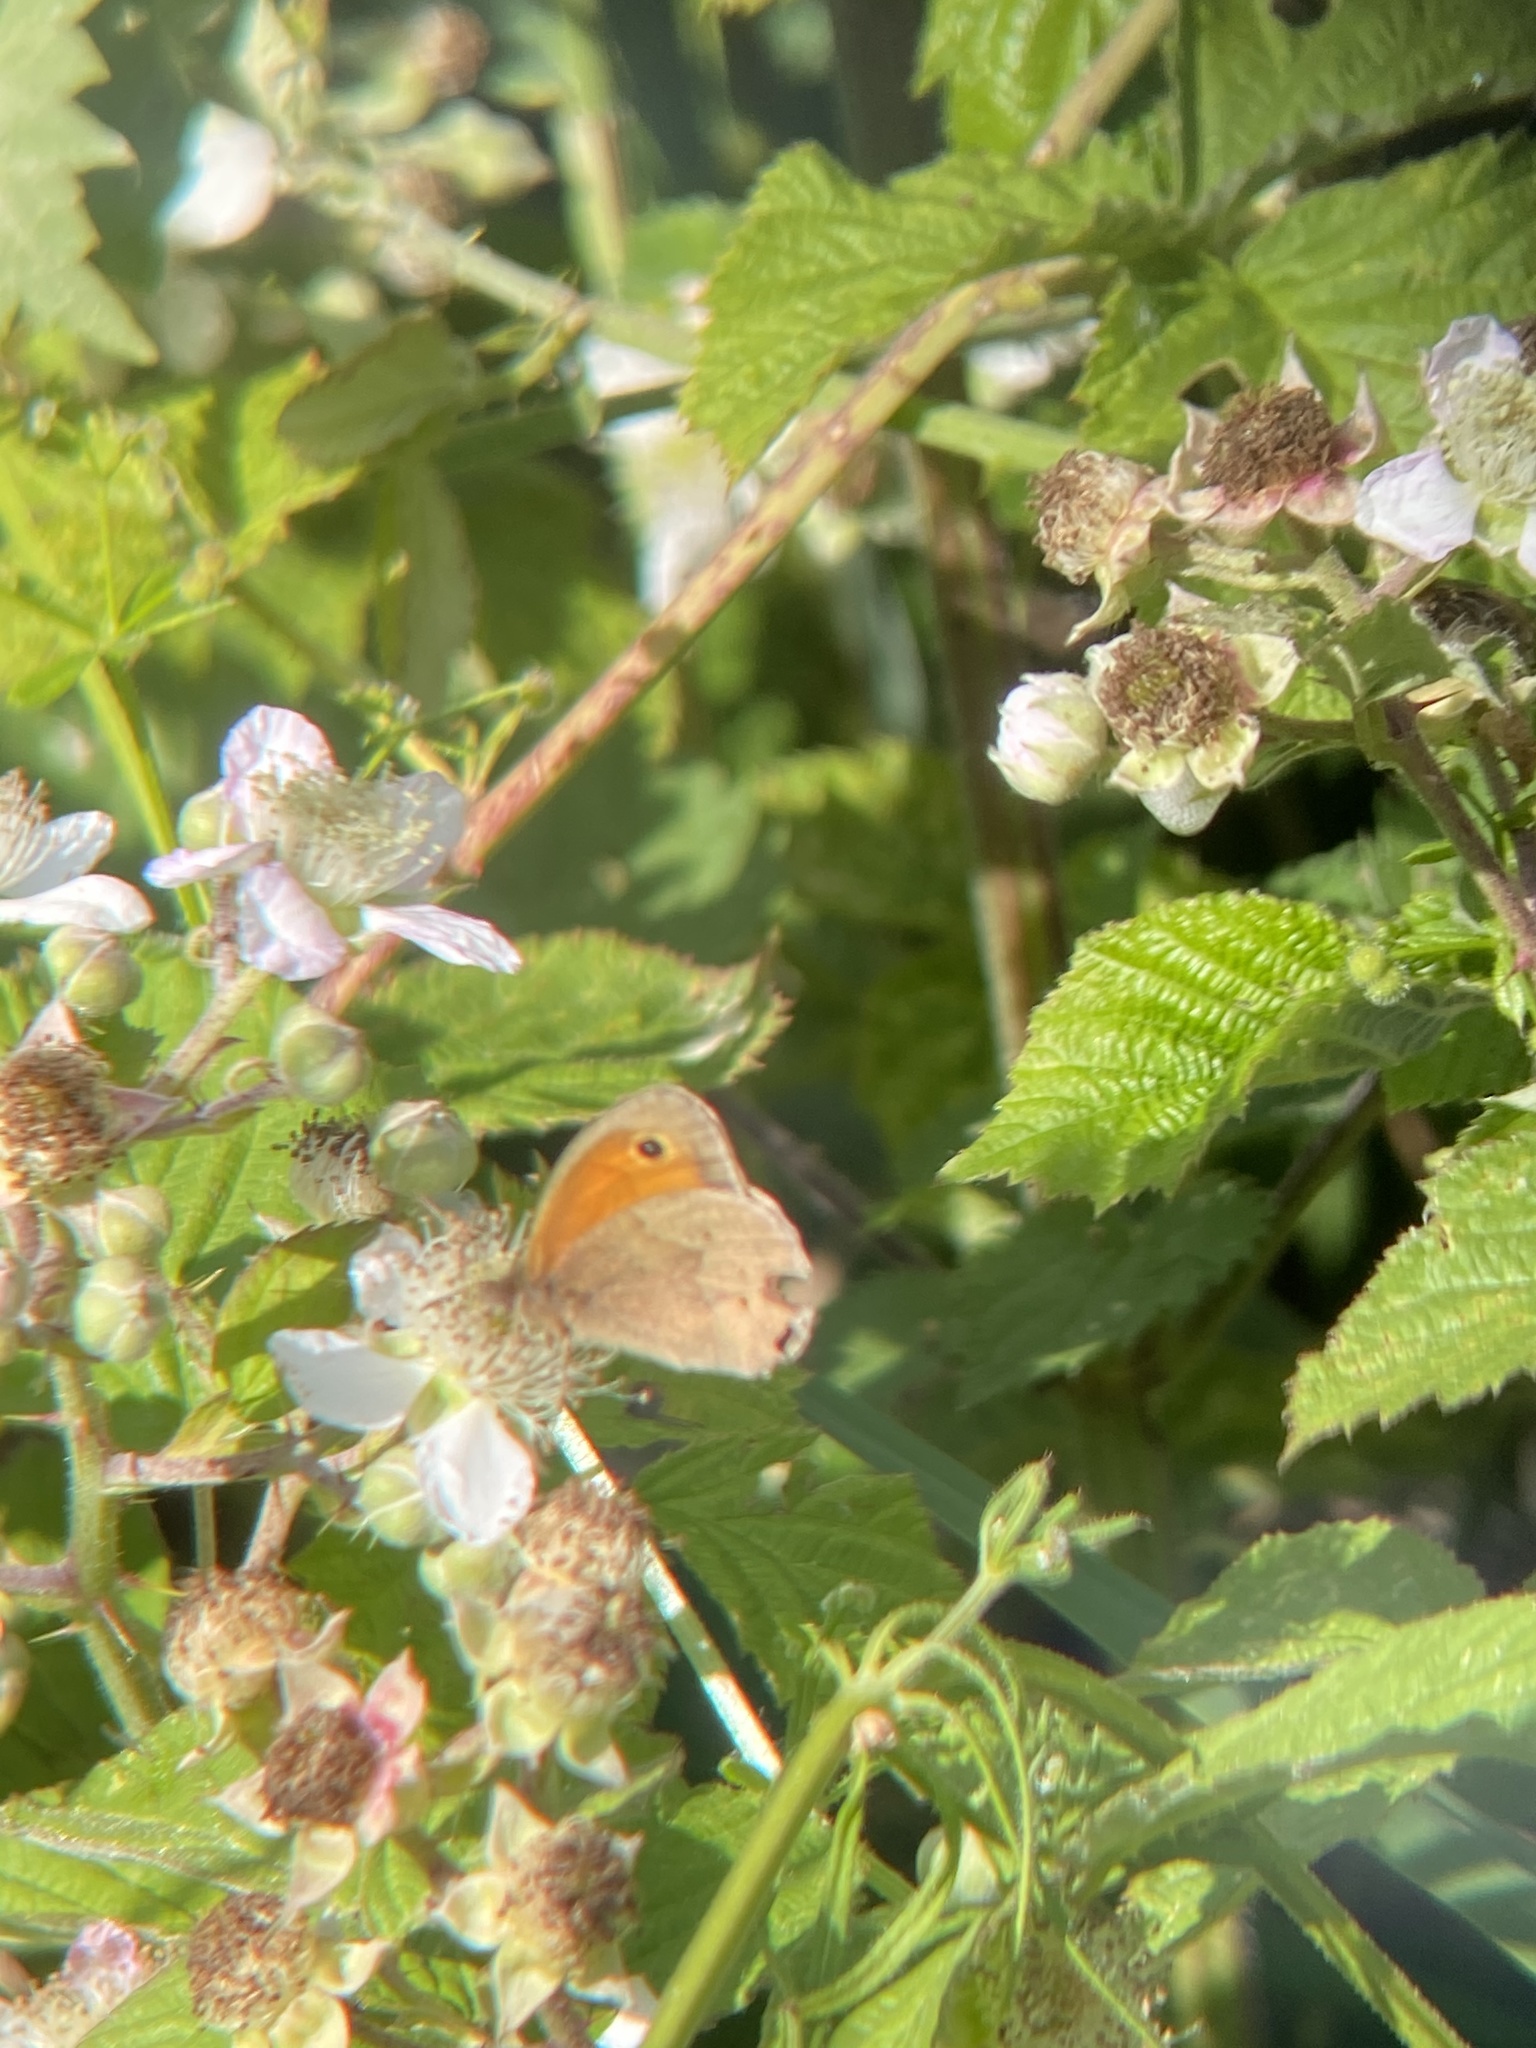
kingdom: Animalia
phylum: Arthropoda
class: Insecta
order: Lepidoptera
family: Nymphalidae
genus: Maniola
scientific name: Maniola jurtina
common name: Meadow brown
